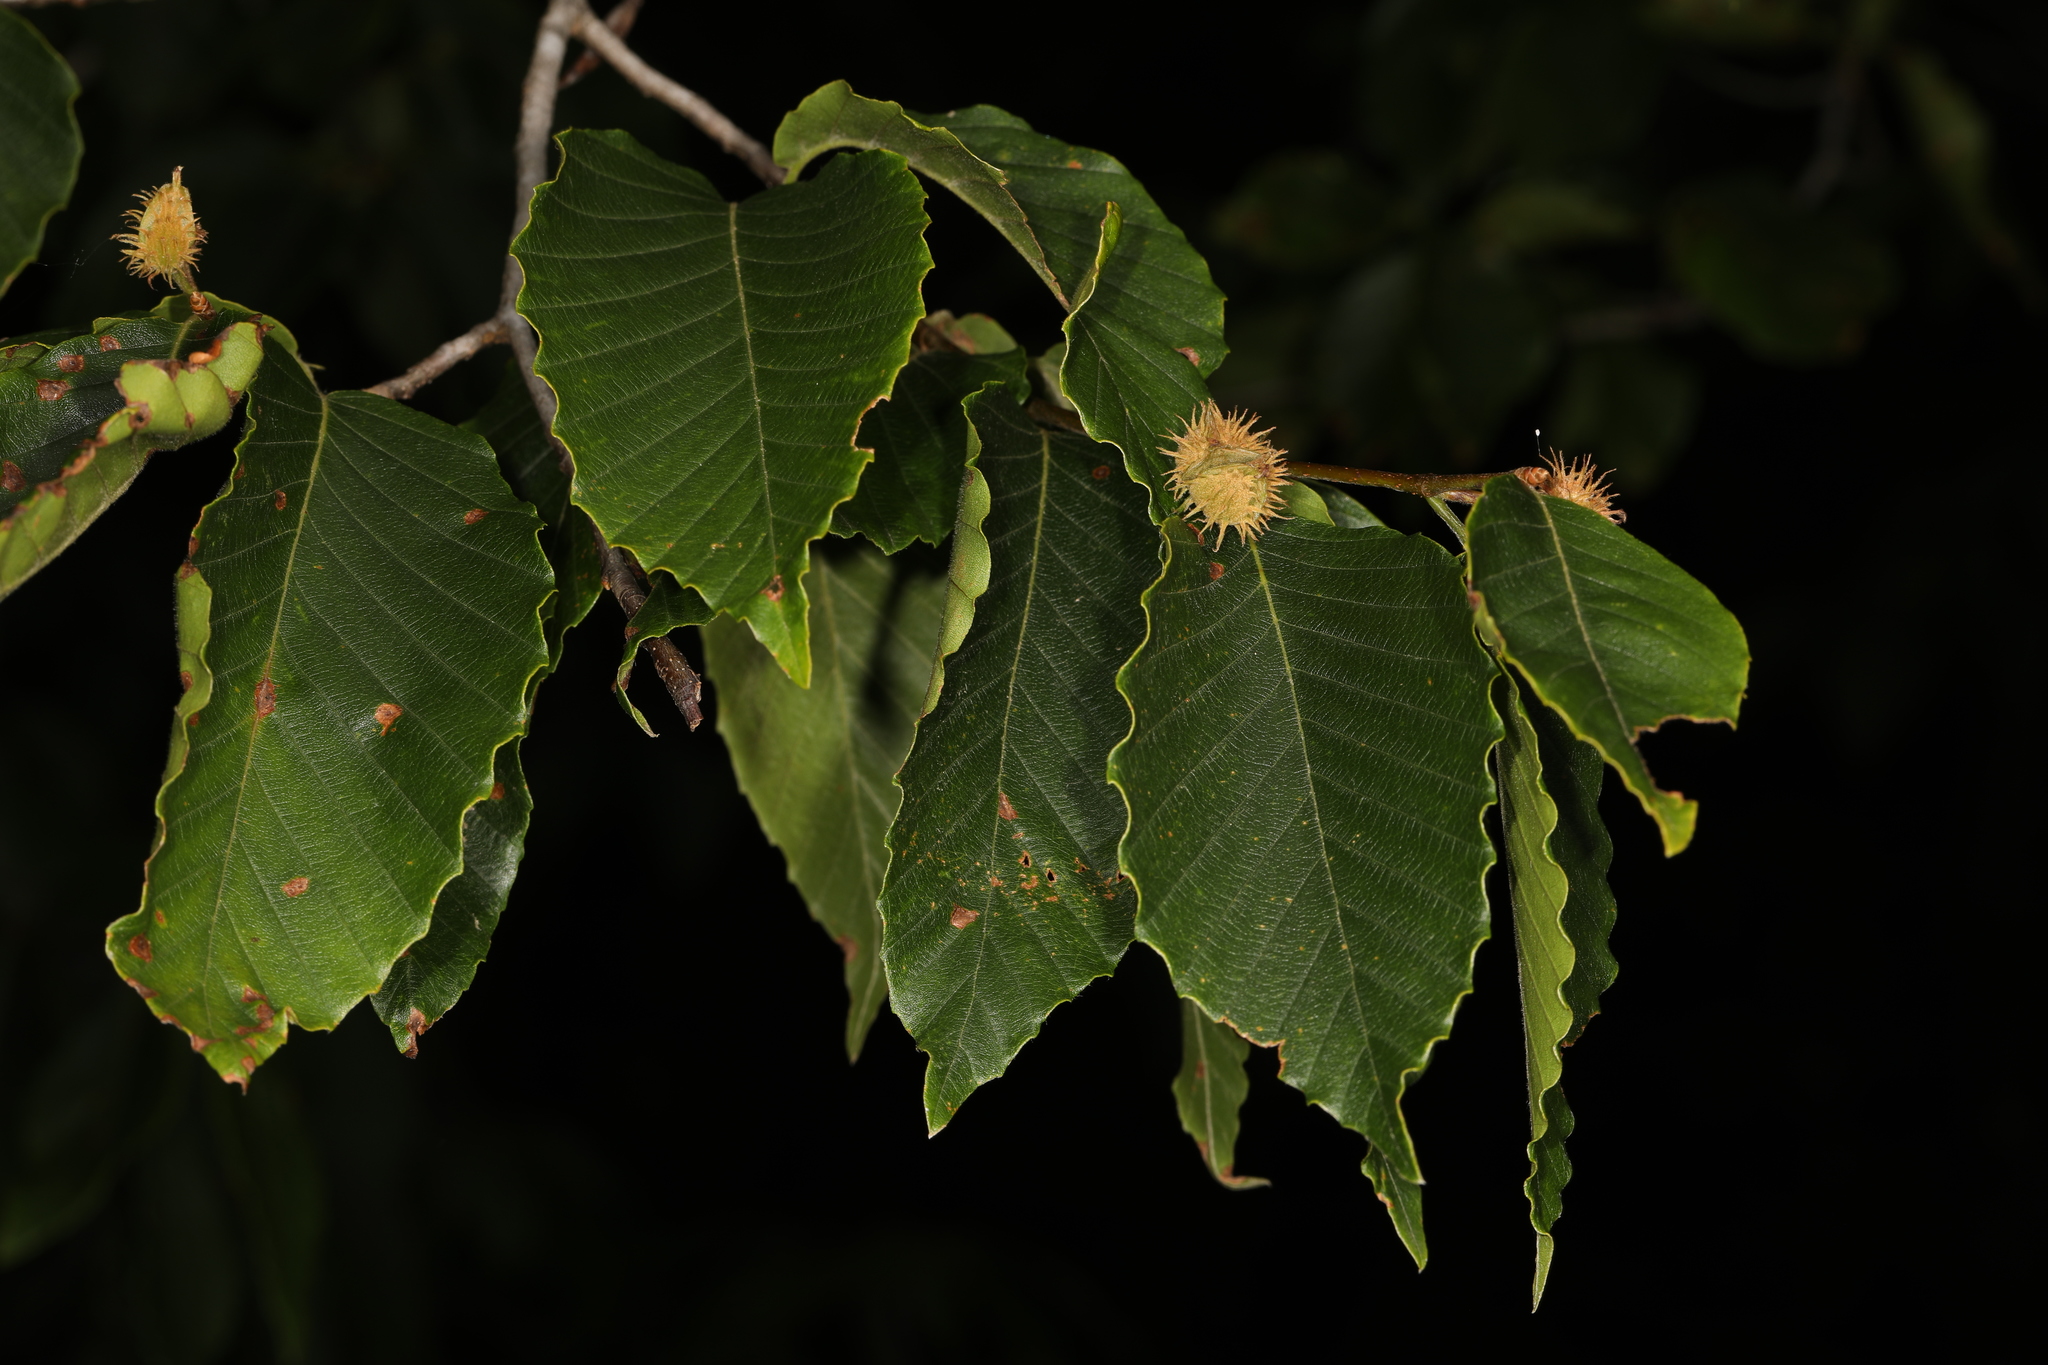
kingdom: Plantae
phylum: Tracheophyta
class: Magnoliopsida
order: Fagales
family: Fagaceae
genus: Fagus
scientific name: Fagus grandifolia
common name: American beech
